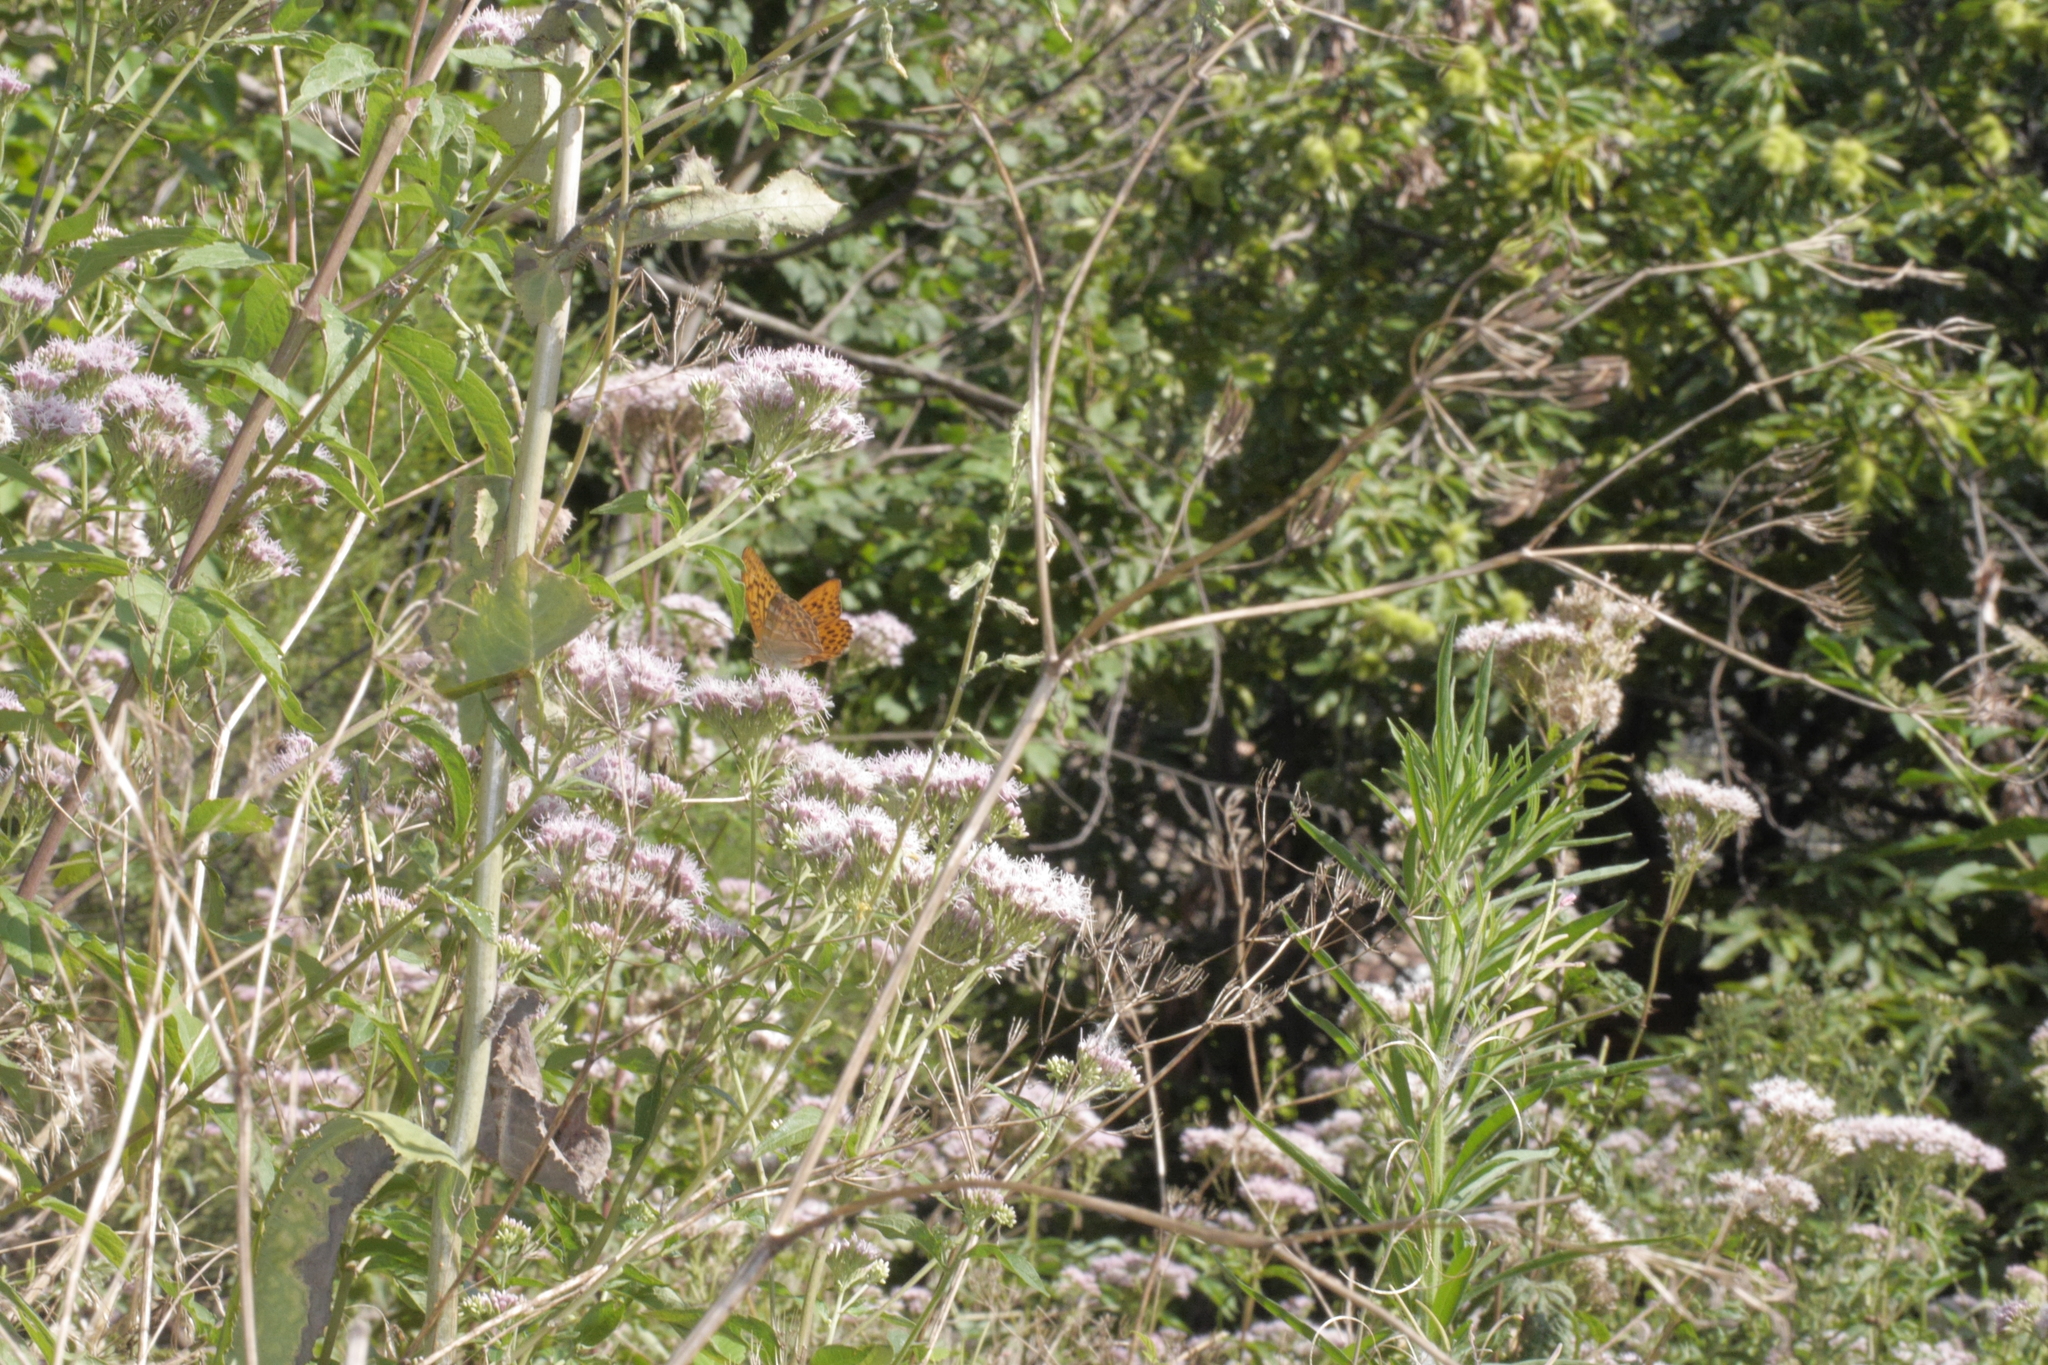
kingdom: Animalia
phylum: Arthropoda
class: Insecta
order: Lepidoptera
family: Nymphalidae
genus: Argynnis
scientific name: Argynnis paphia
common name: Silver-washed fritillary
